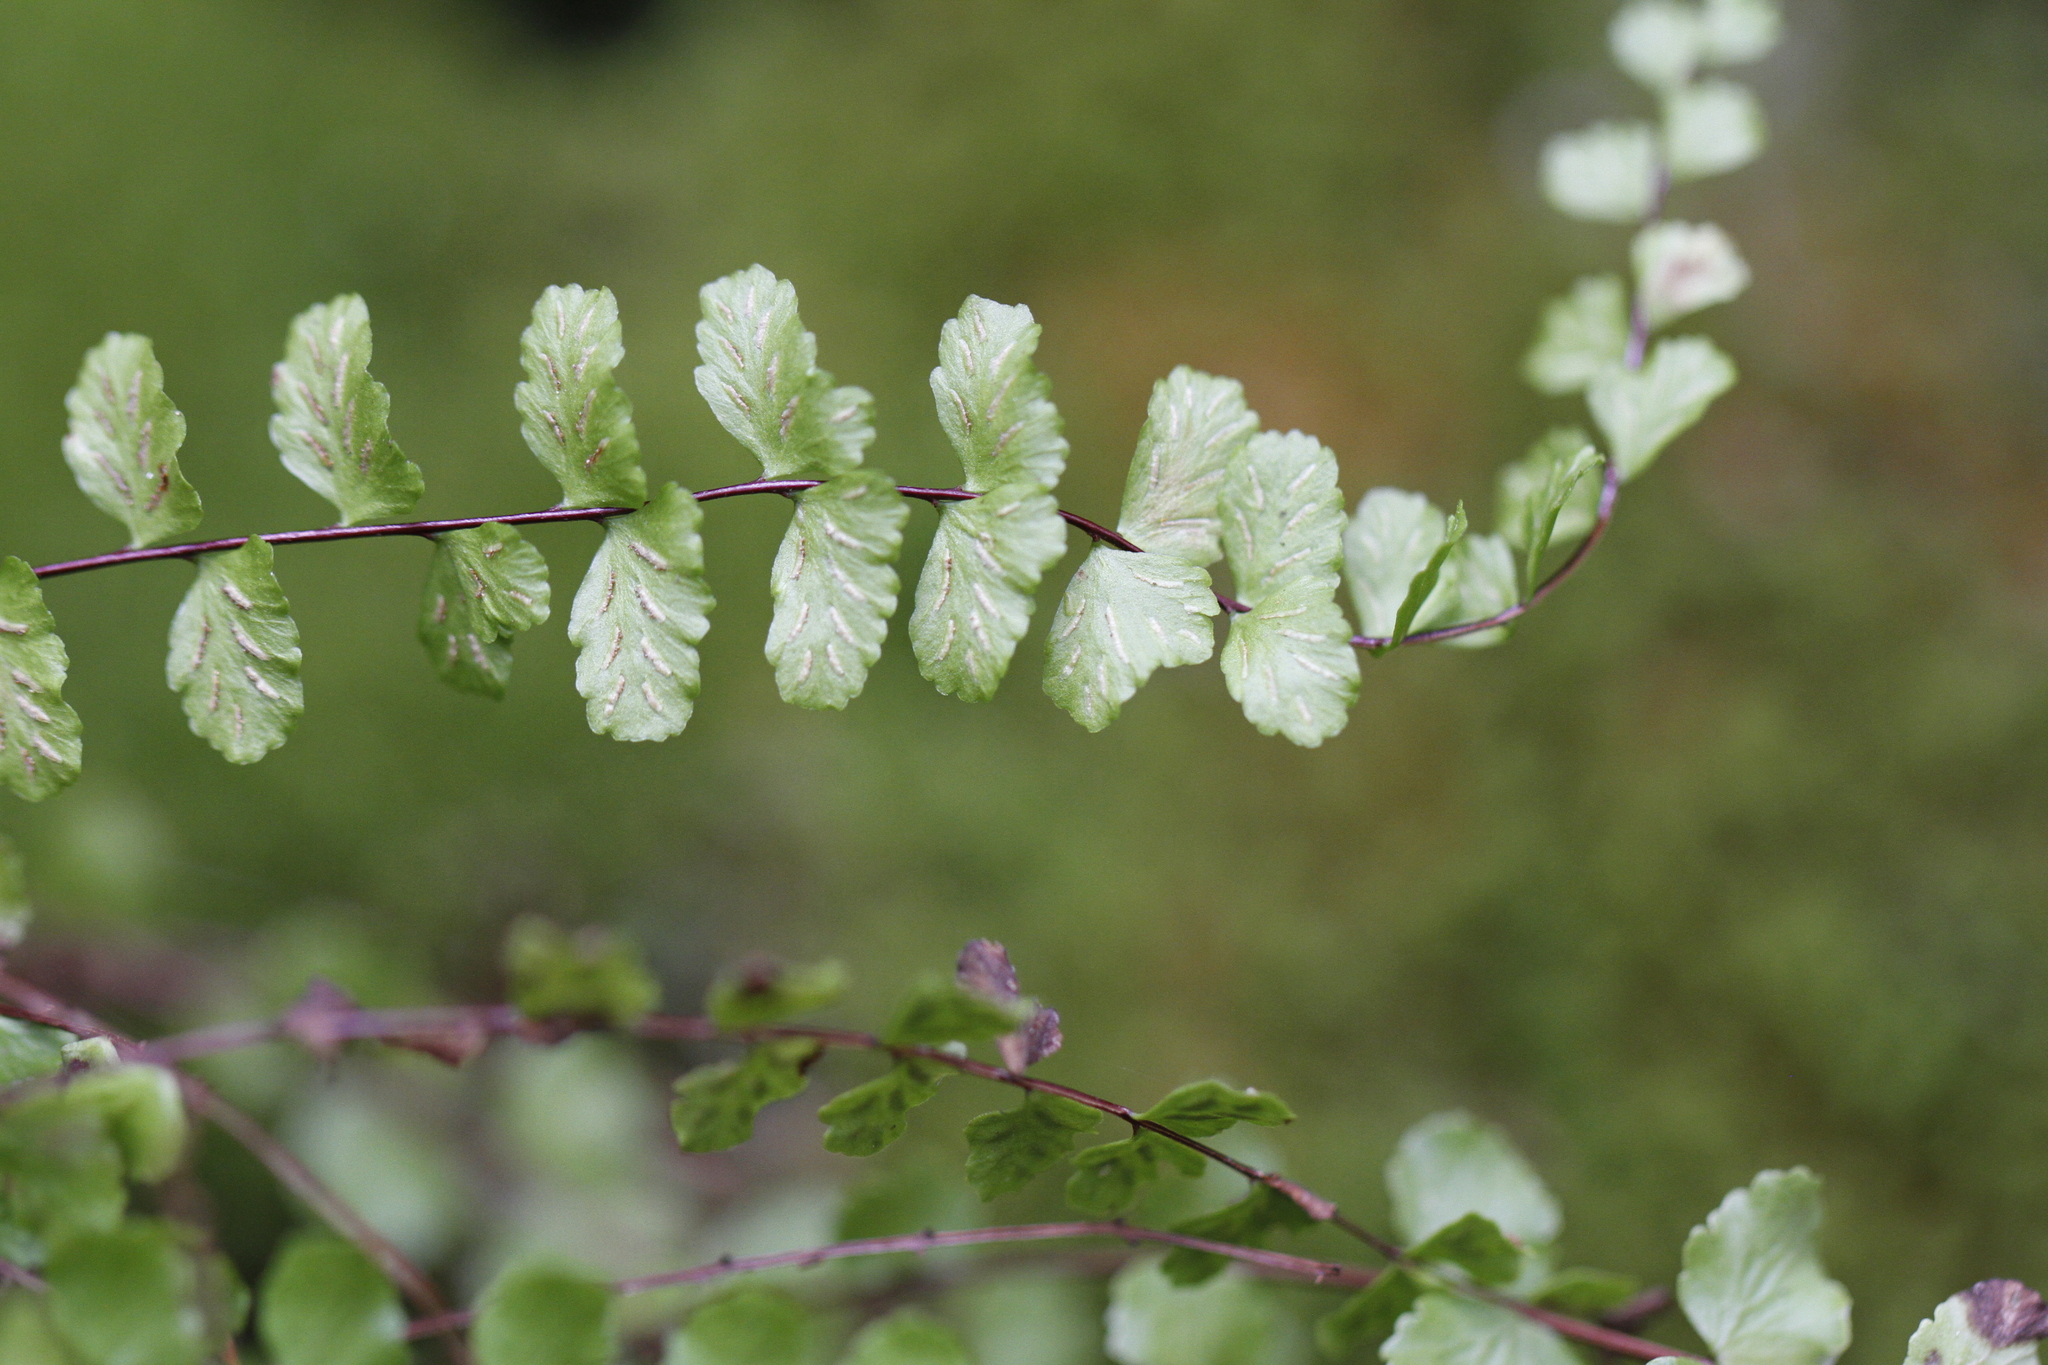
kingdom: Plantae
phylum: Tracheophyta
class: Polypodiopsida
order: Polypodiales
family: Aspleniaceae
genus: Asplenium
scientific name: Asplenium trichomanes
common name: Maidenhair spleenwort
